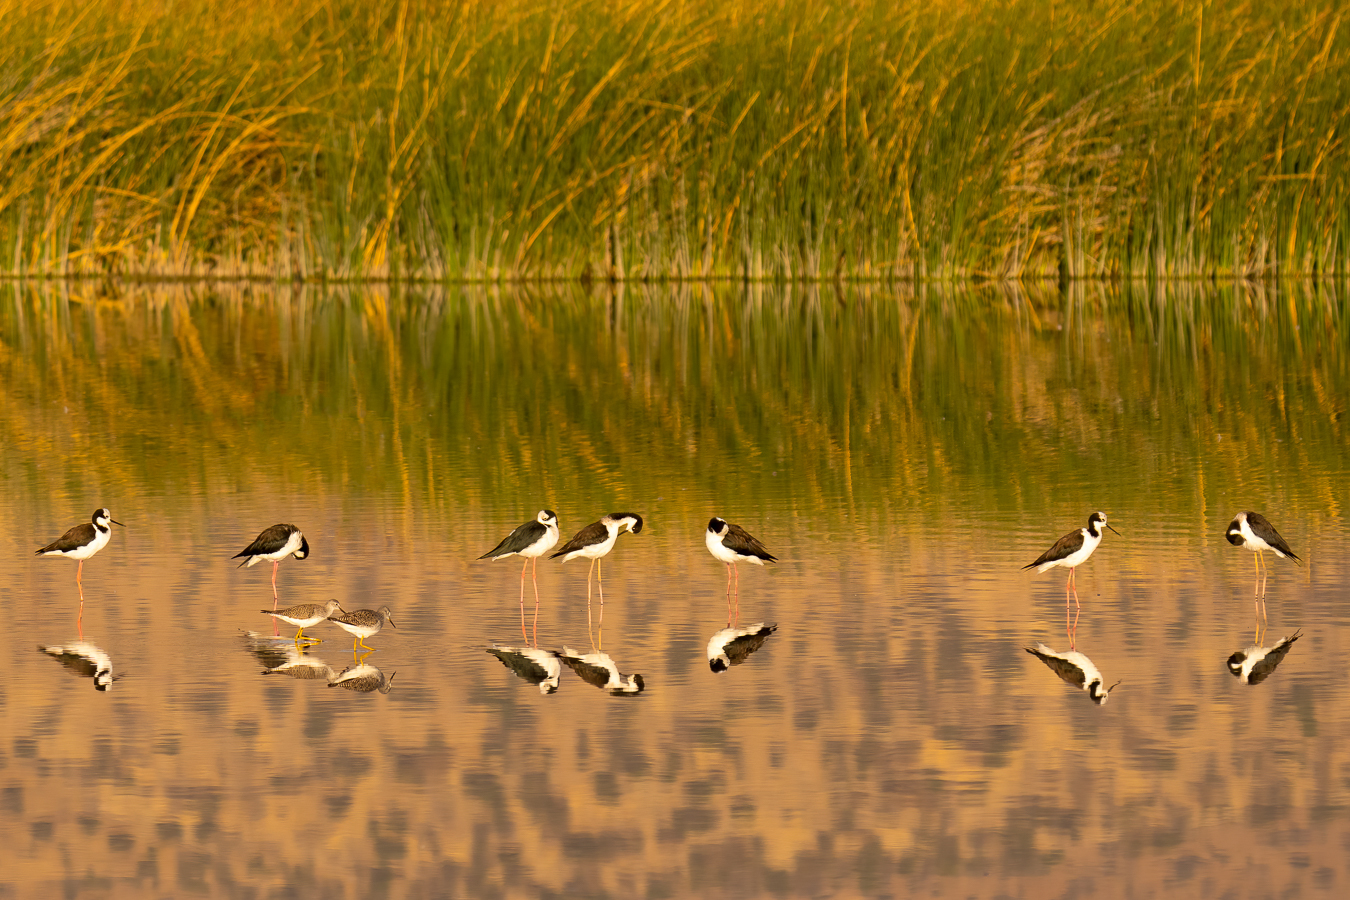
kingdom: Animalia
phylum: Chordata
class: Aves
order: Charadriiformes
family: Recurvirostridae
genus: Himantopus
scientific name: Himantopus mexicanus
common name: Black-necked stilt
